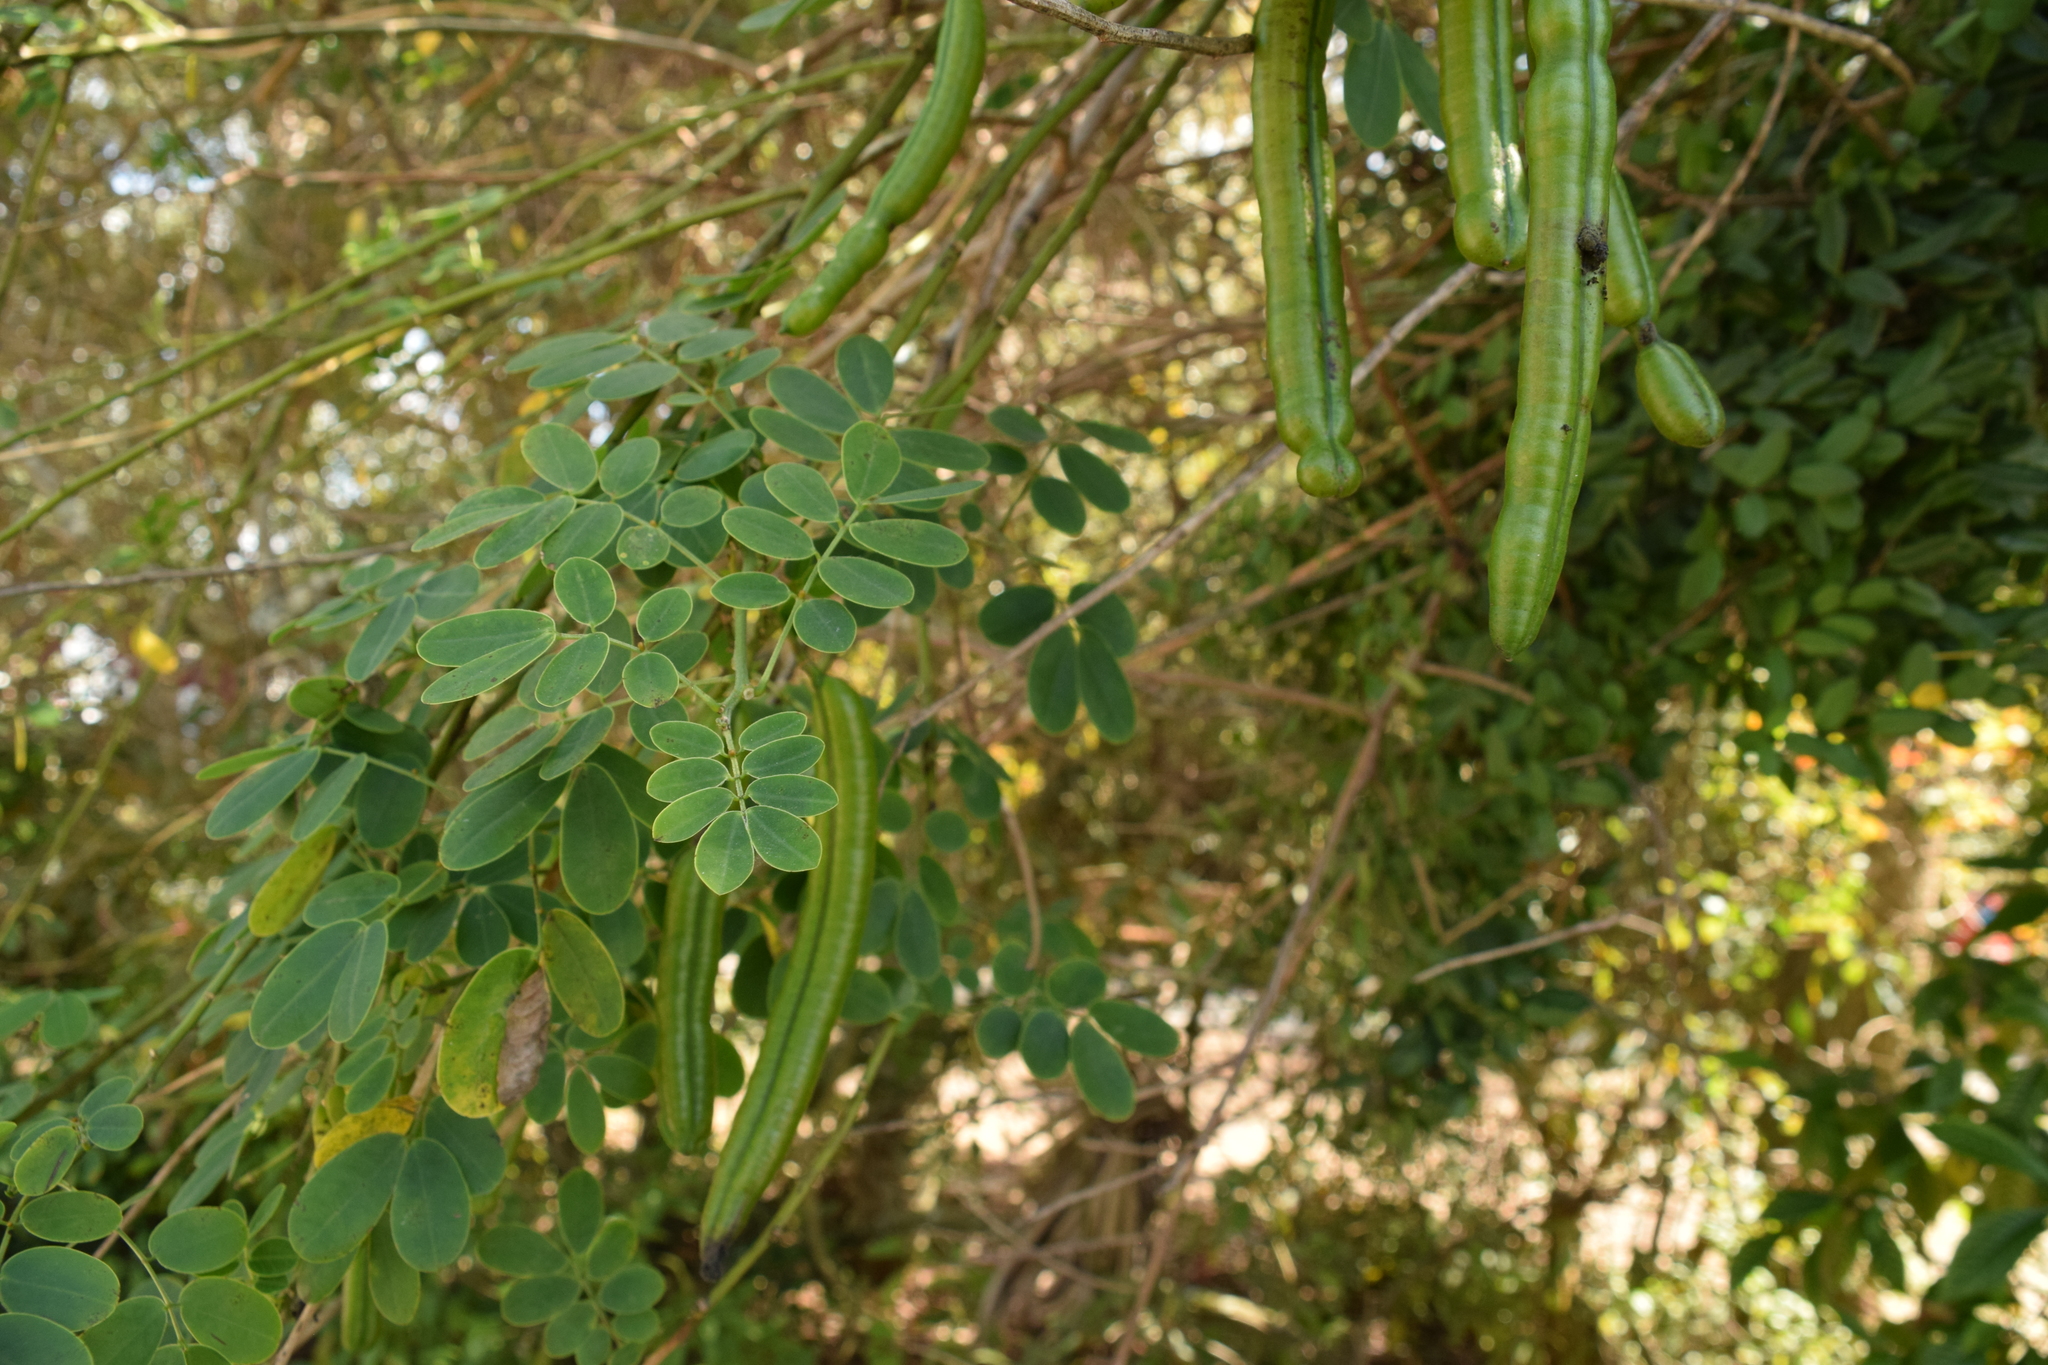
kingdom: Plantae
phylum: Tracheophyta
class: Magnoliopsida
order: Fabales
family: Fabaceae
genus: Senna
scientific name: Senna pendula
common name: Easter cassia
